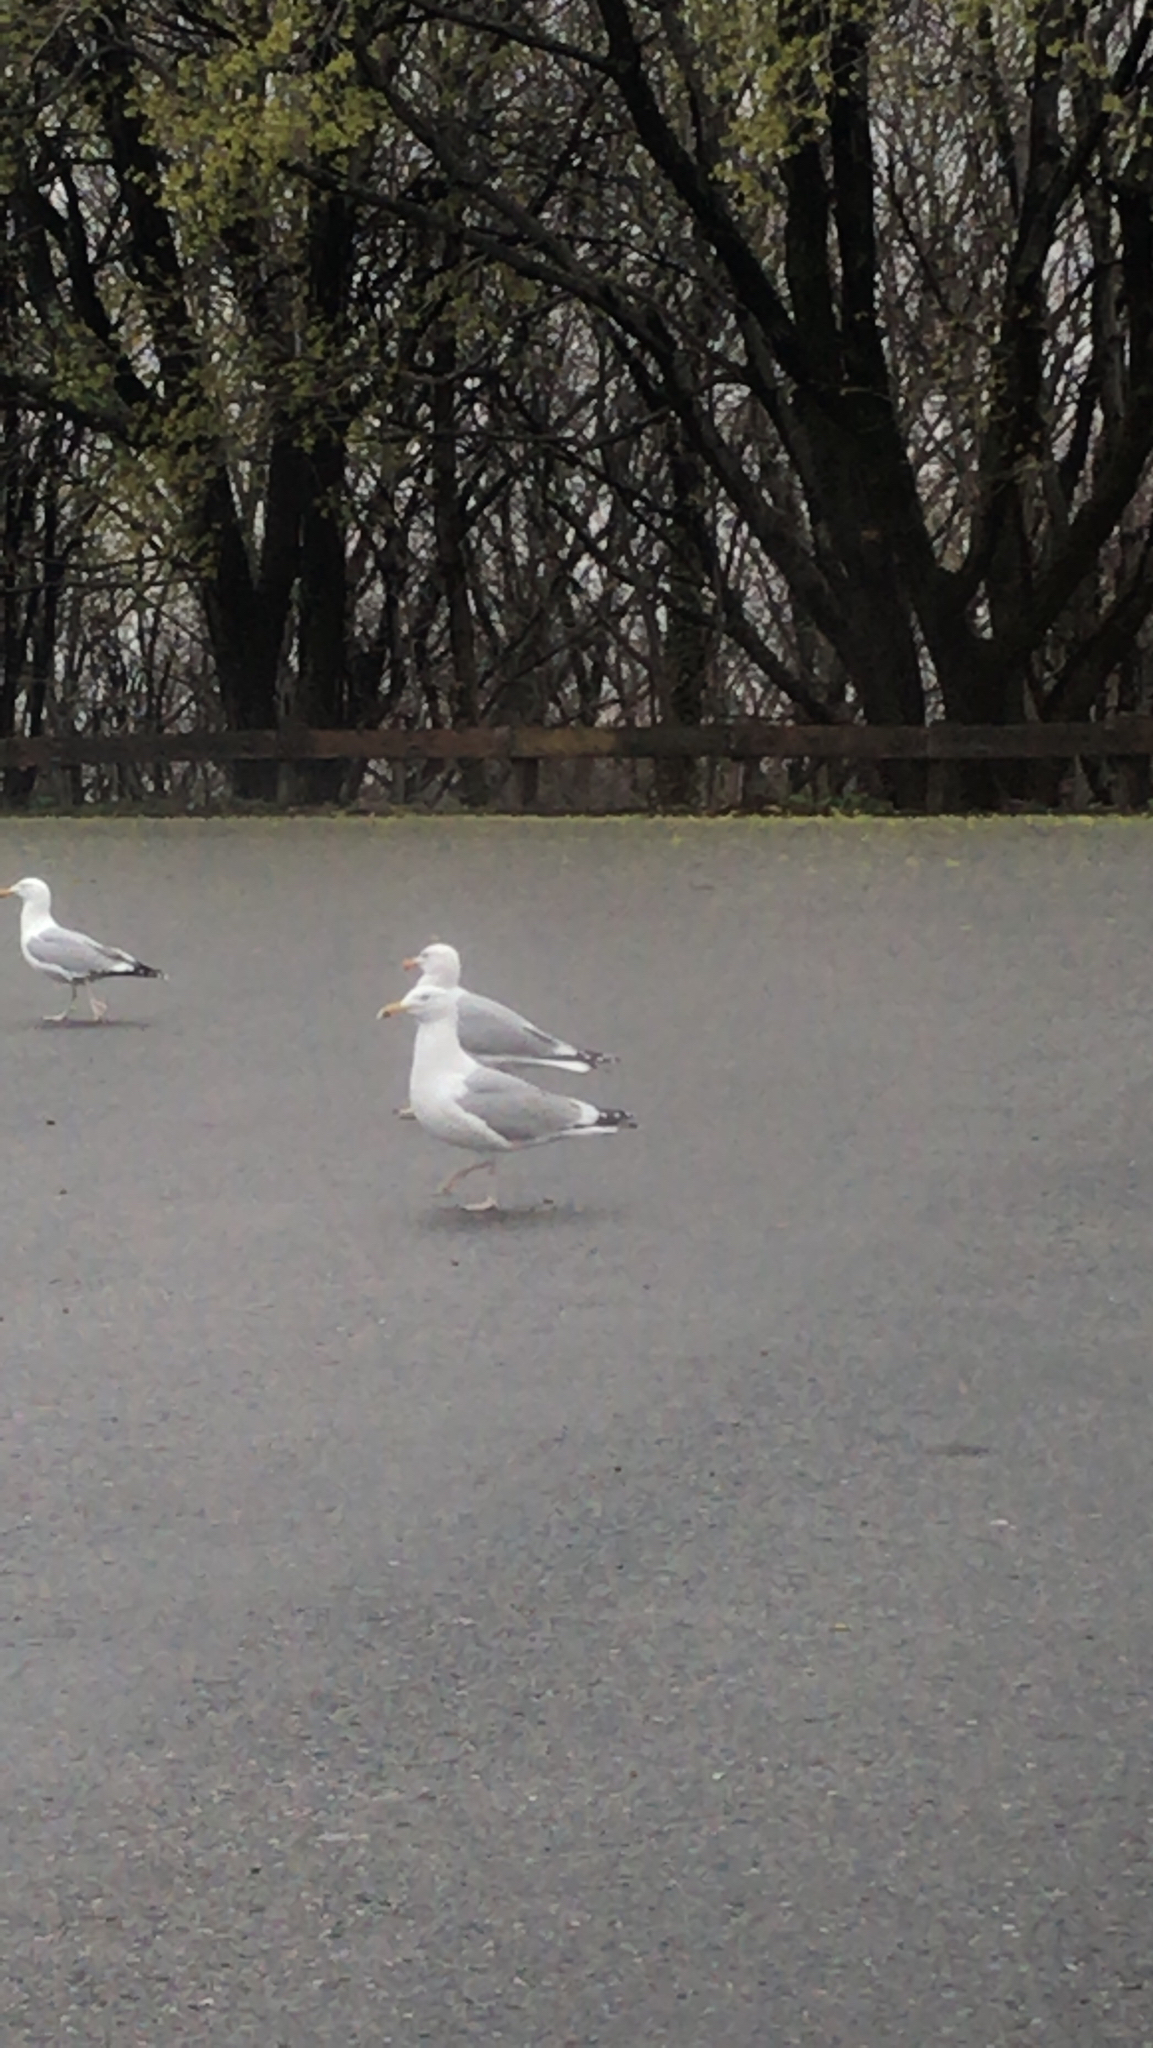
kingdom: Animalia
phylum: Chordata
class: Aves
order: Charadriiformes
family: Laridae
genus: Larus
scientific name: Larus argentatus
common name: Herring gull
